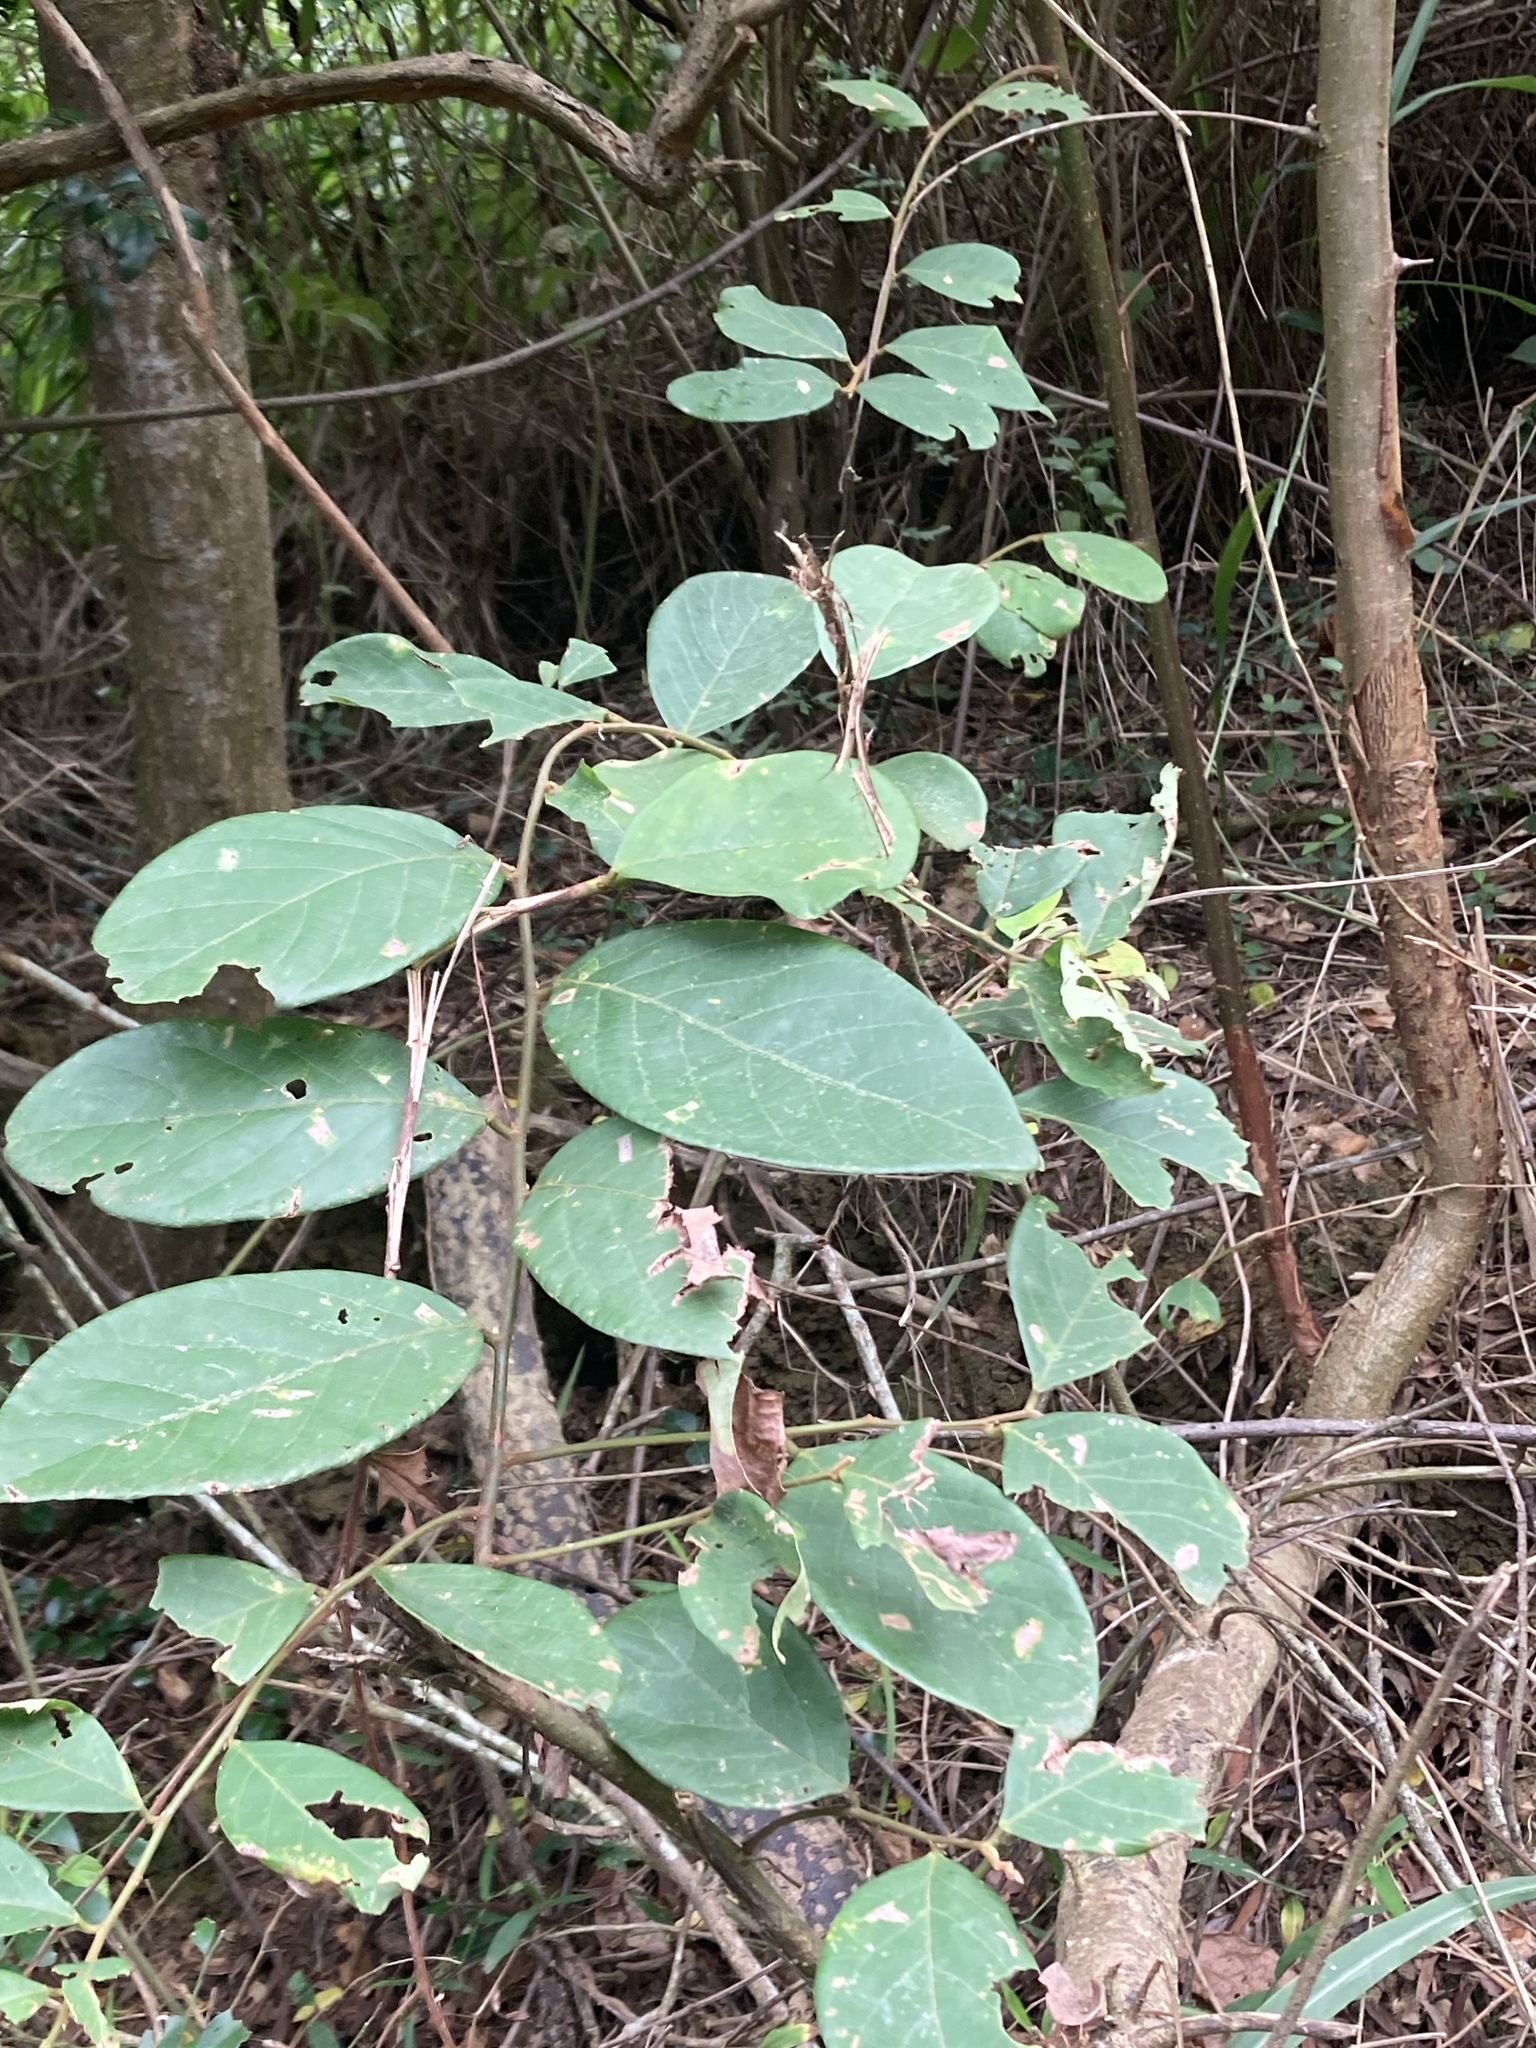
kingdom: Plantae
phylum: Tracheophyta
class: Magnoliopsida
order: Malpighiales
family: Phyllanthaceae
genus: Bridelia
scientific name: Bridelia tomentosa
